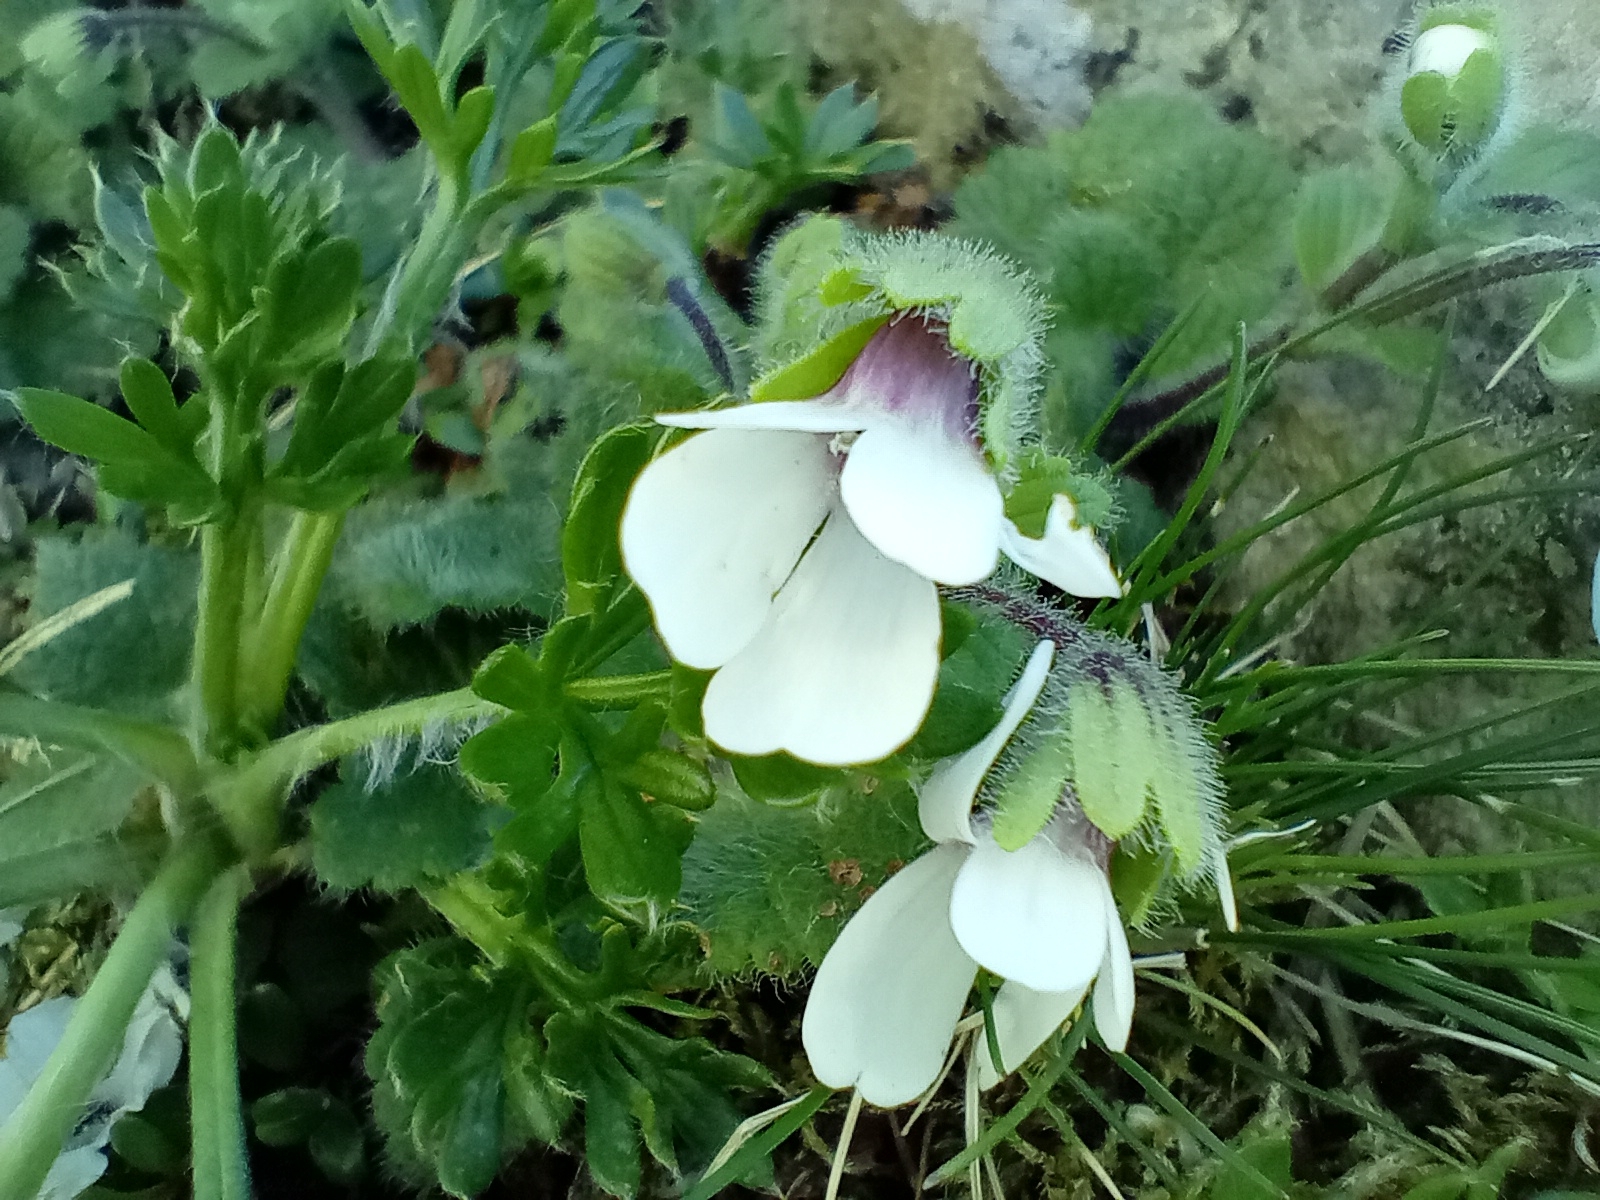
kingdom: Plantae
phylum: Tracheophyta
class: Magnoliopsida
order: Lamiales
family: Plantaginaceae
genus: Ourisia
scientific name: Ourisia remotifolia
